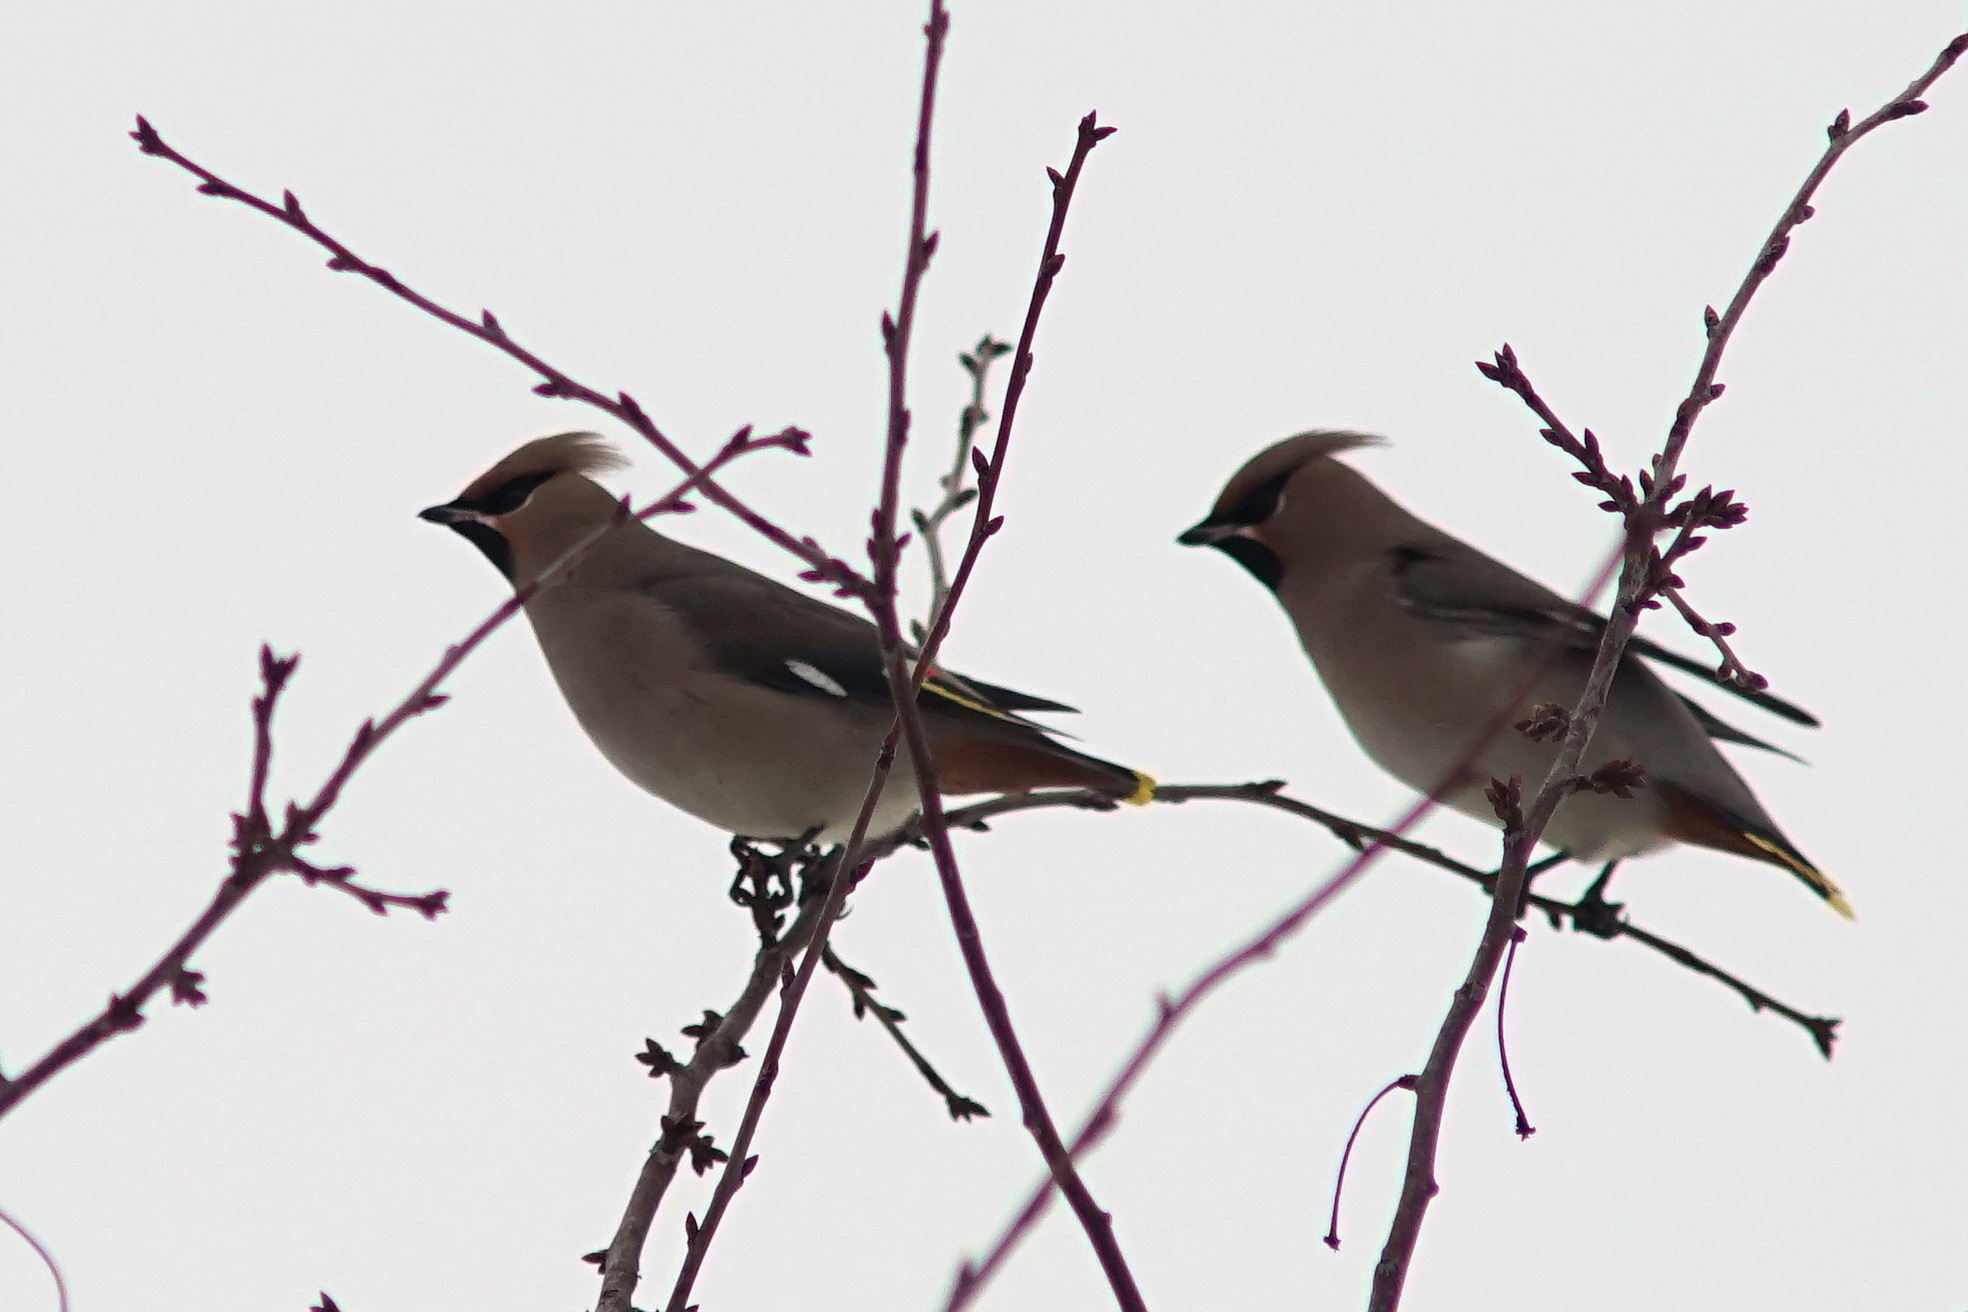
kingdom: Animalia
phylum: Chordata
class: Aves
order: Passeriformes
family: Bombycillidae
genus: Bombycilla
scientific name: Bombycilla garrulus
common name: Bohemian waxwing
